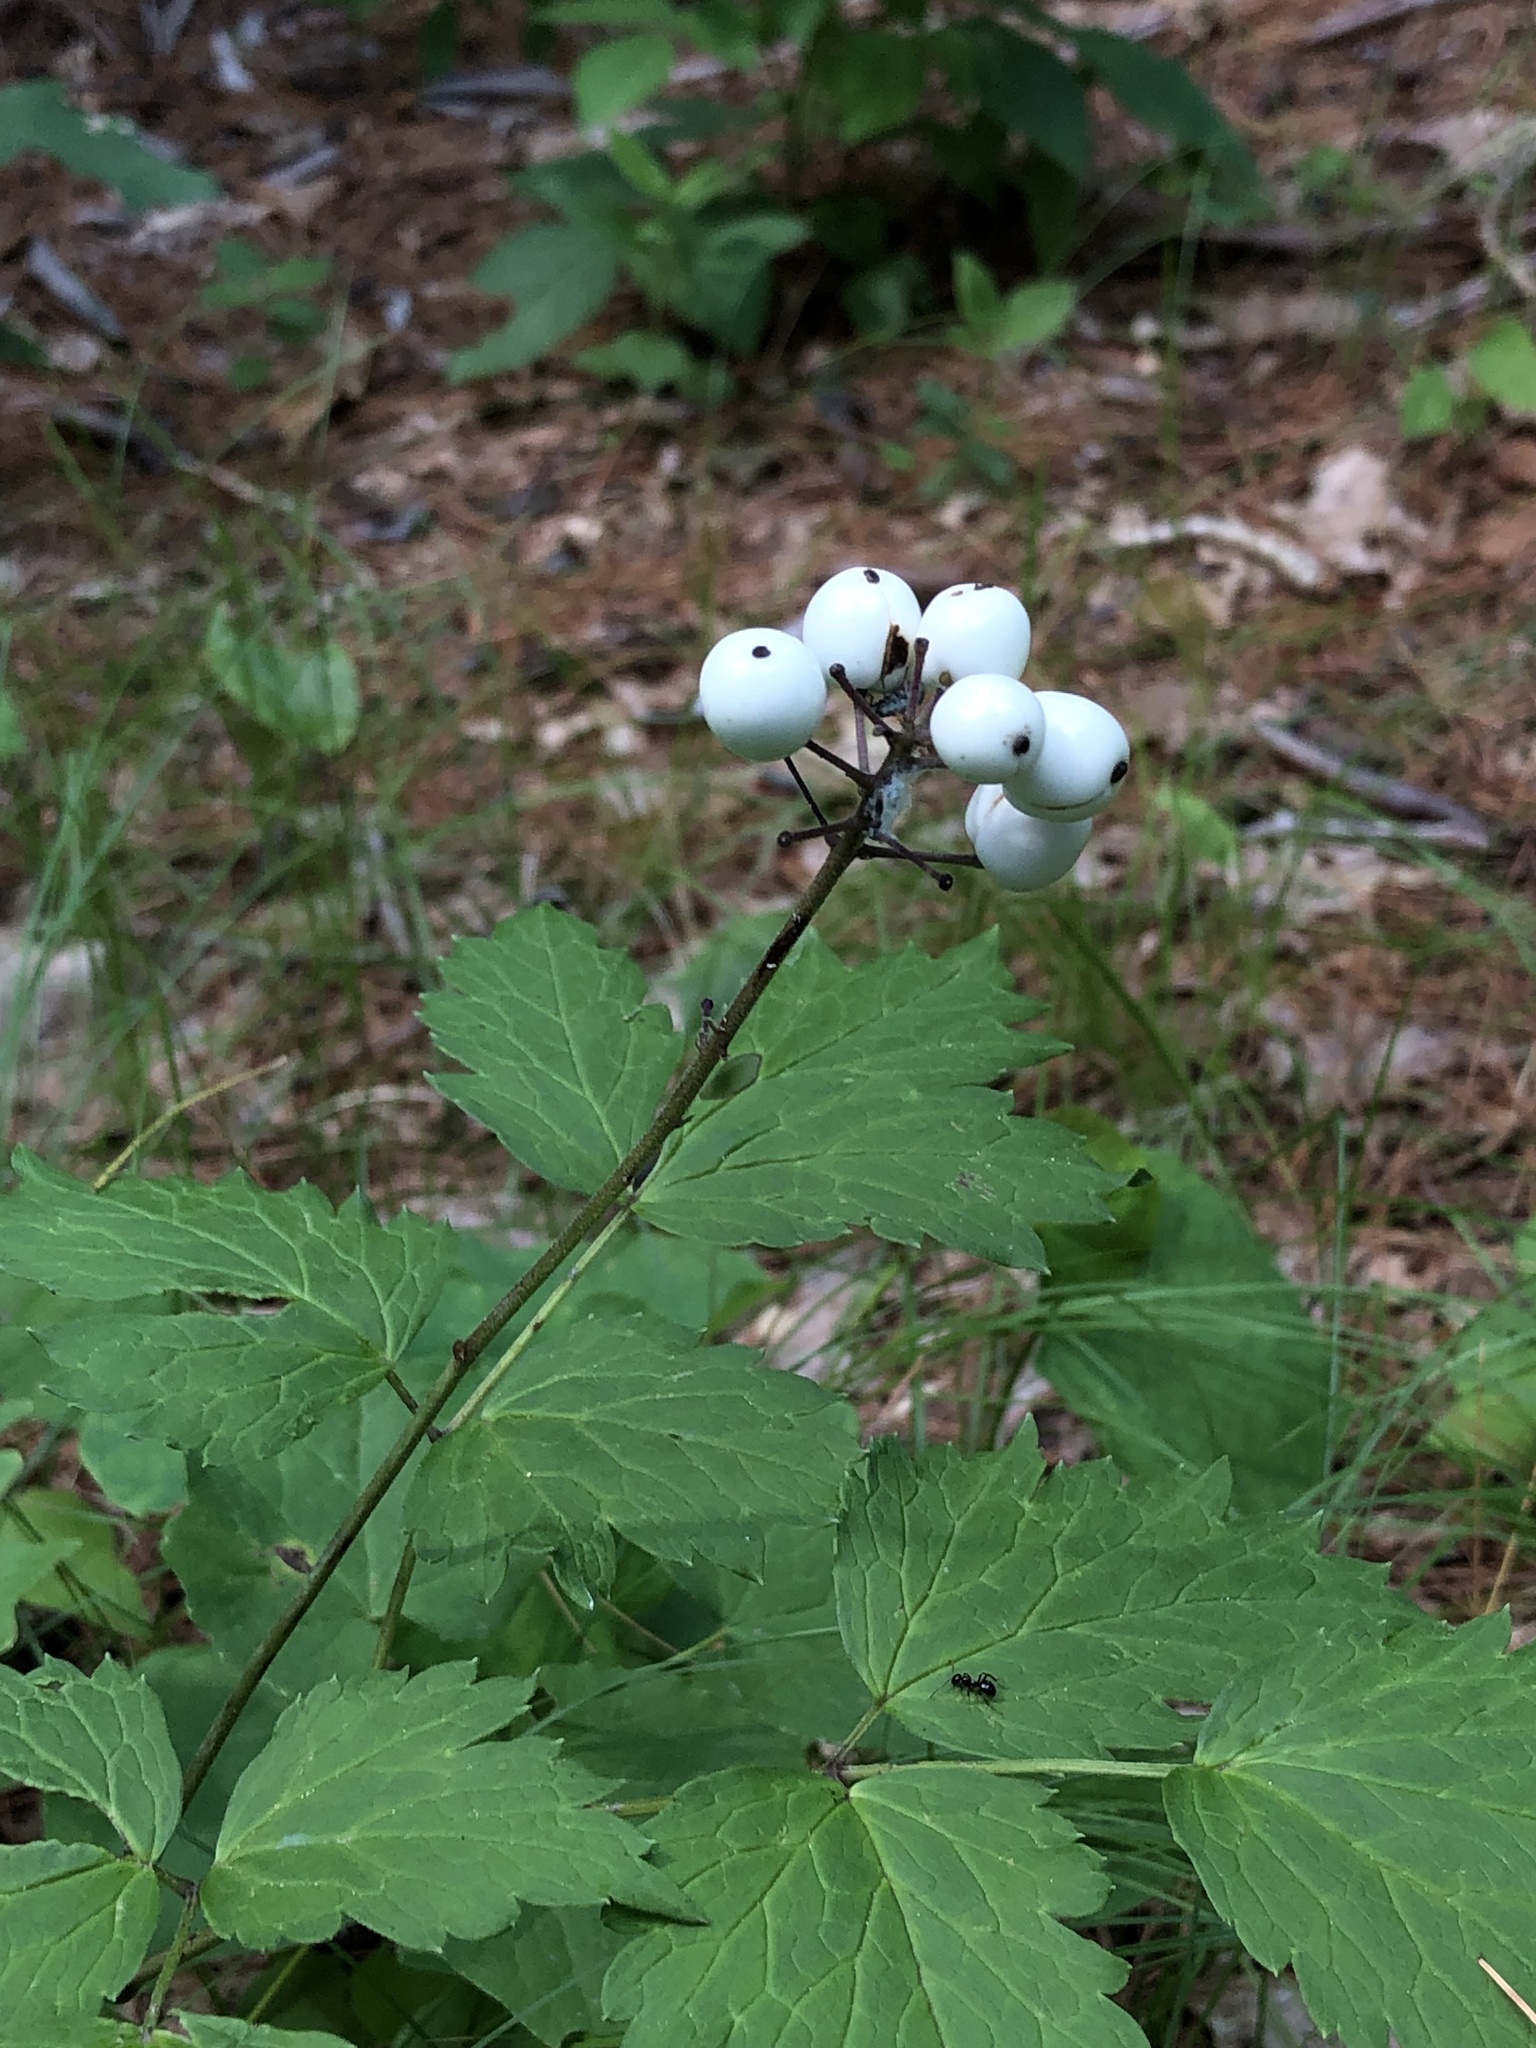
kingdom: Plantae
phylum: Tracheophyta
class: Magnoliopsida
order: Ranunculales
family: Ranunculaceae
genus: Actaea
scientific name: Actaea pachypoda
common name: Doll's-eyes
